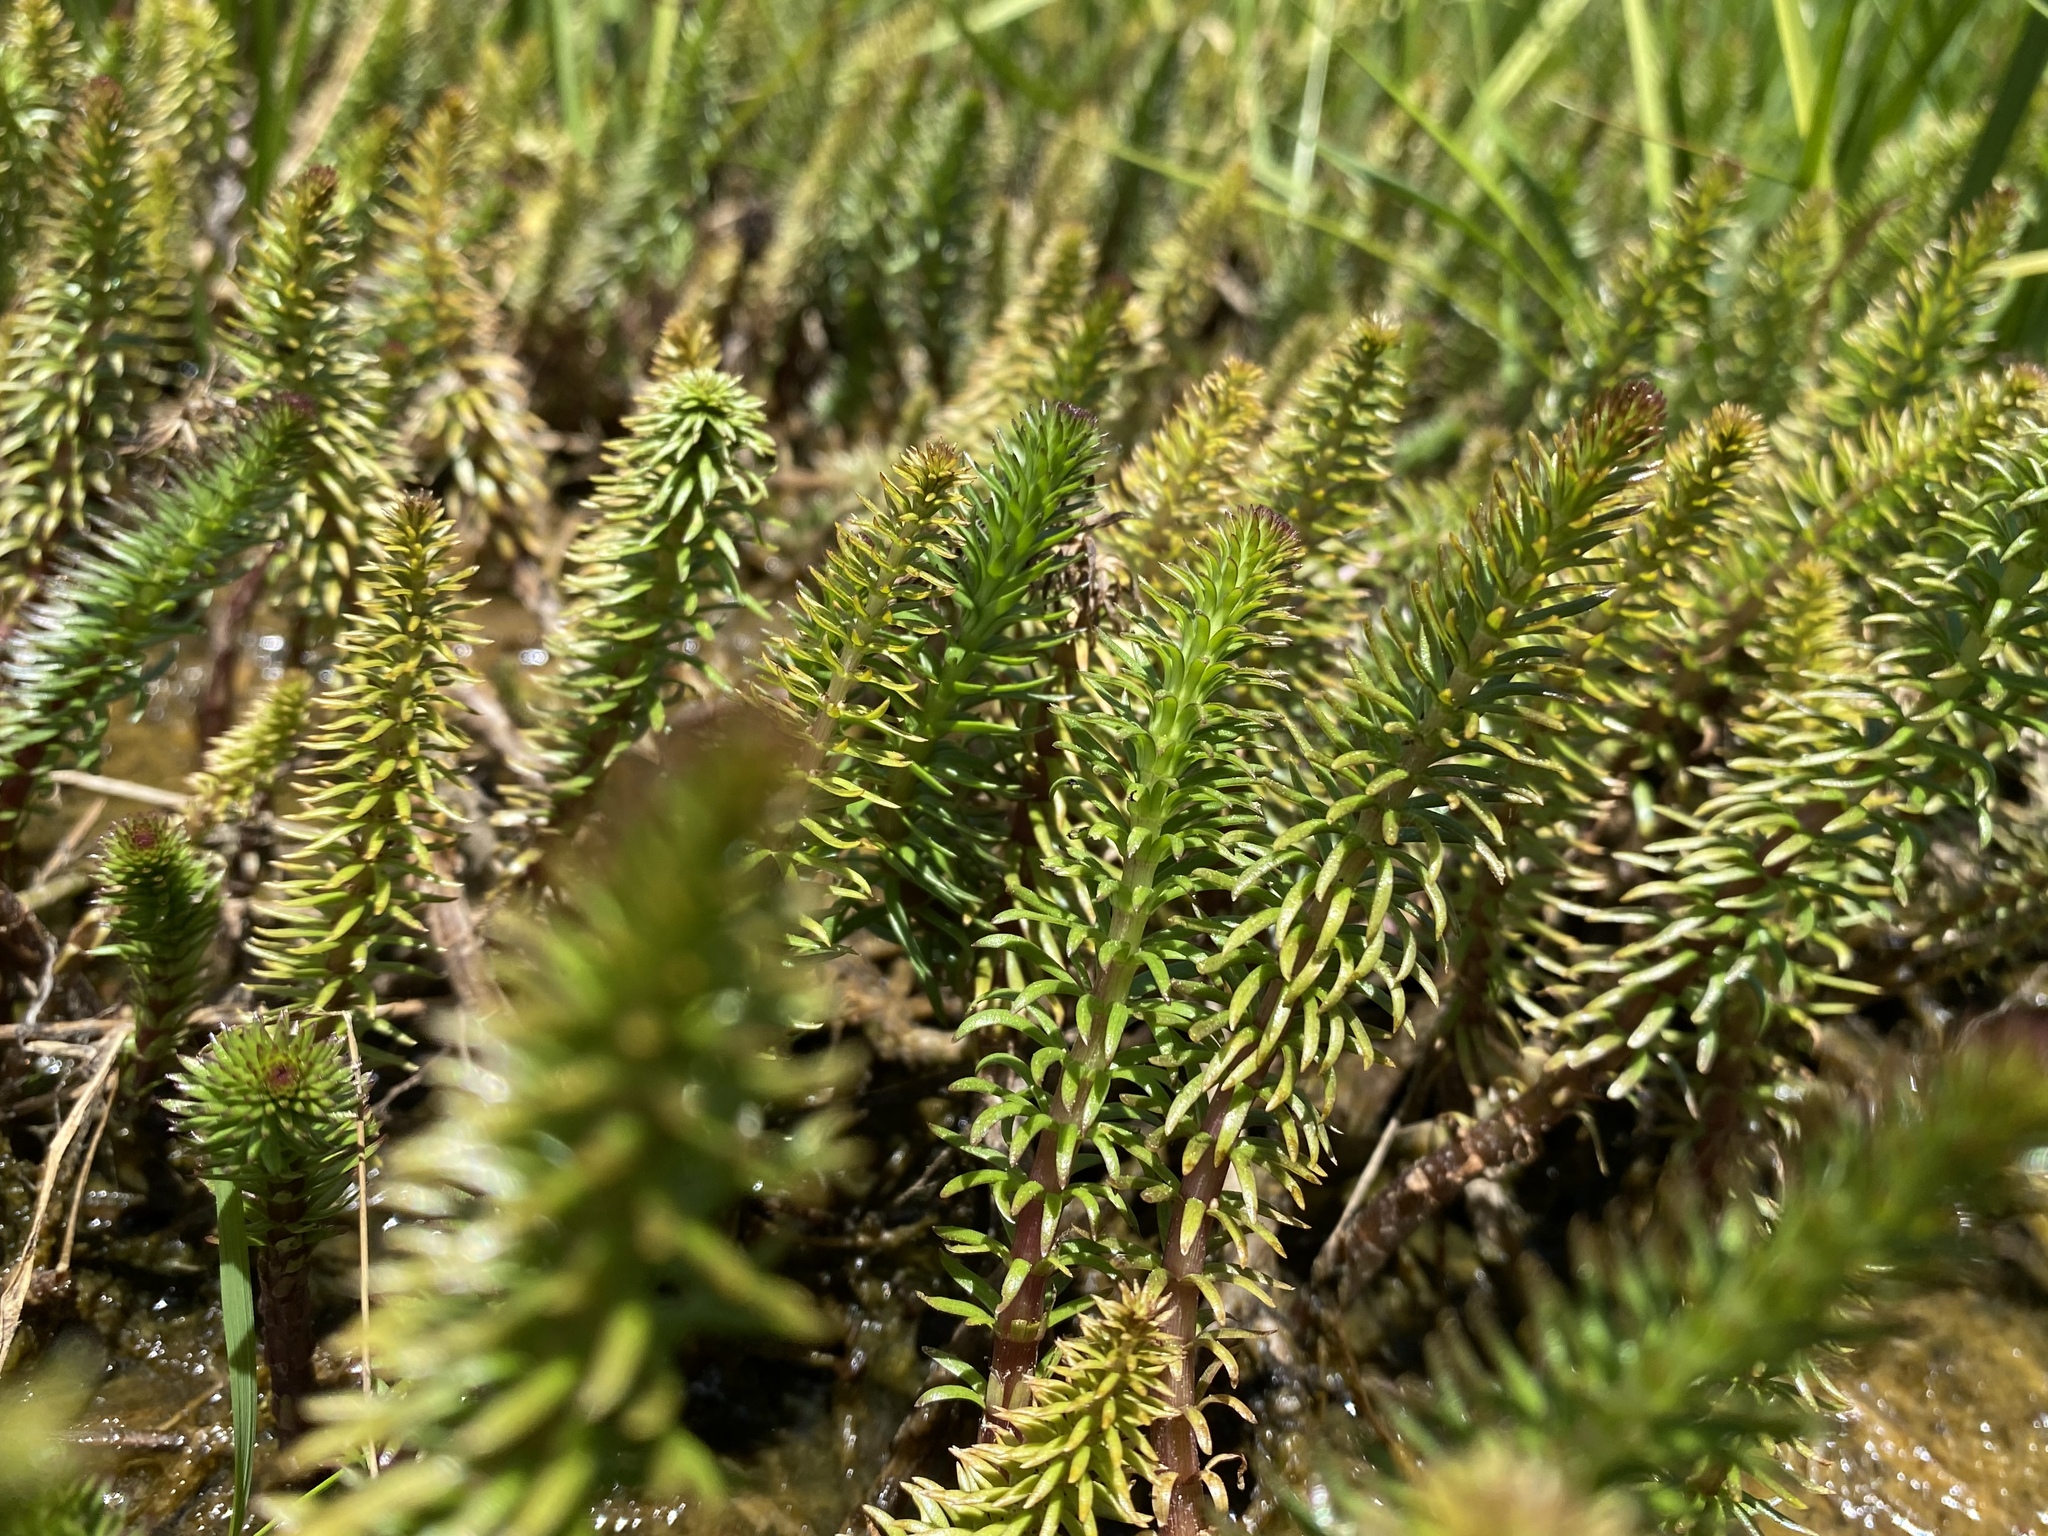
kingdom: Plantae
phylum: Tracheophyta
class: Magnoliopsida
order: Lamiales
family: Plantaginaceae
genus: Hippuris
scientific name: Hippuris vulgaris
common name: Mare's-tail
